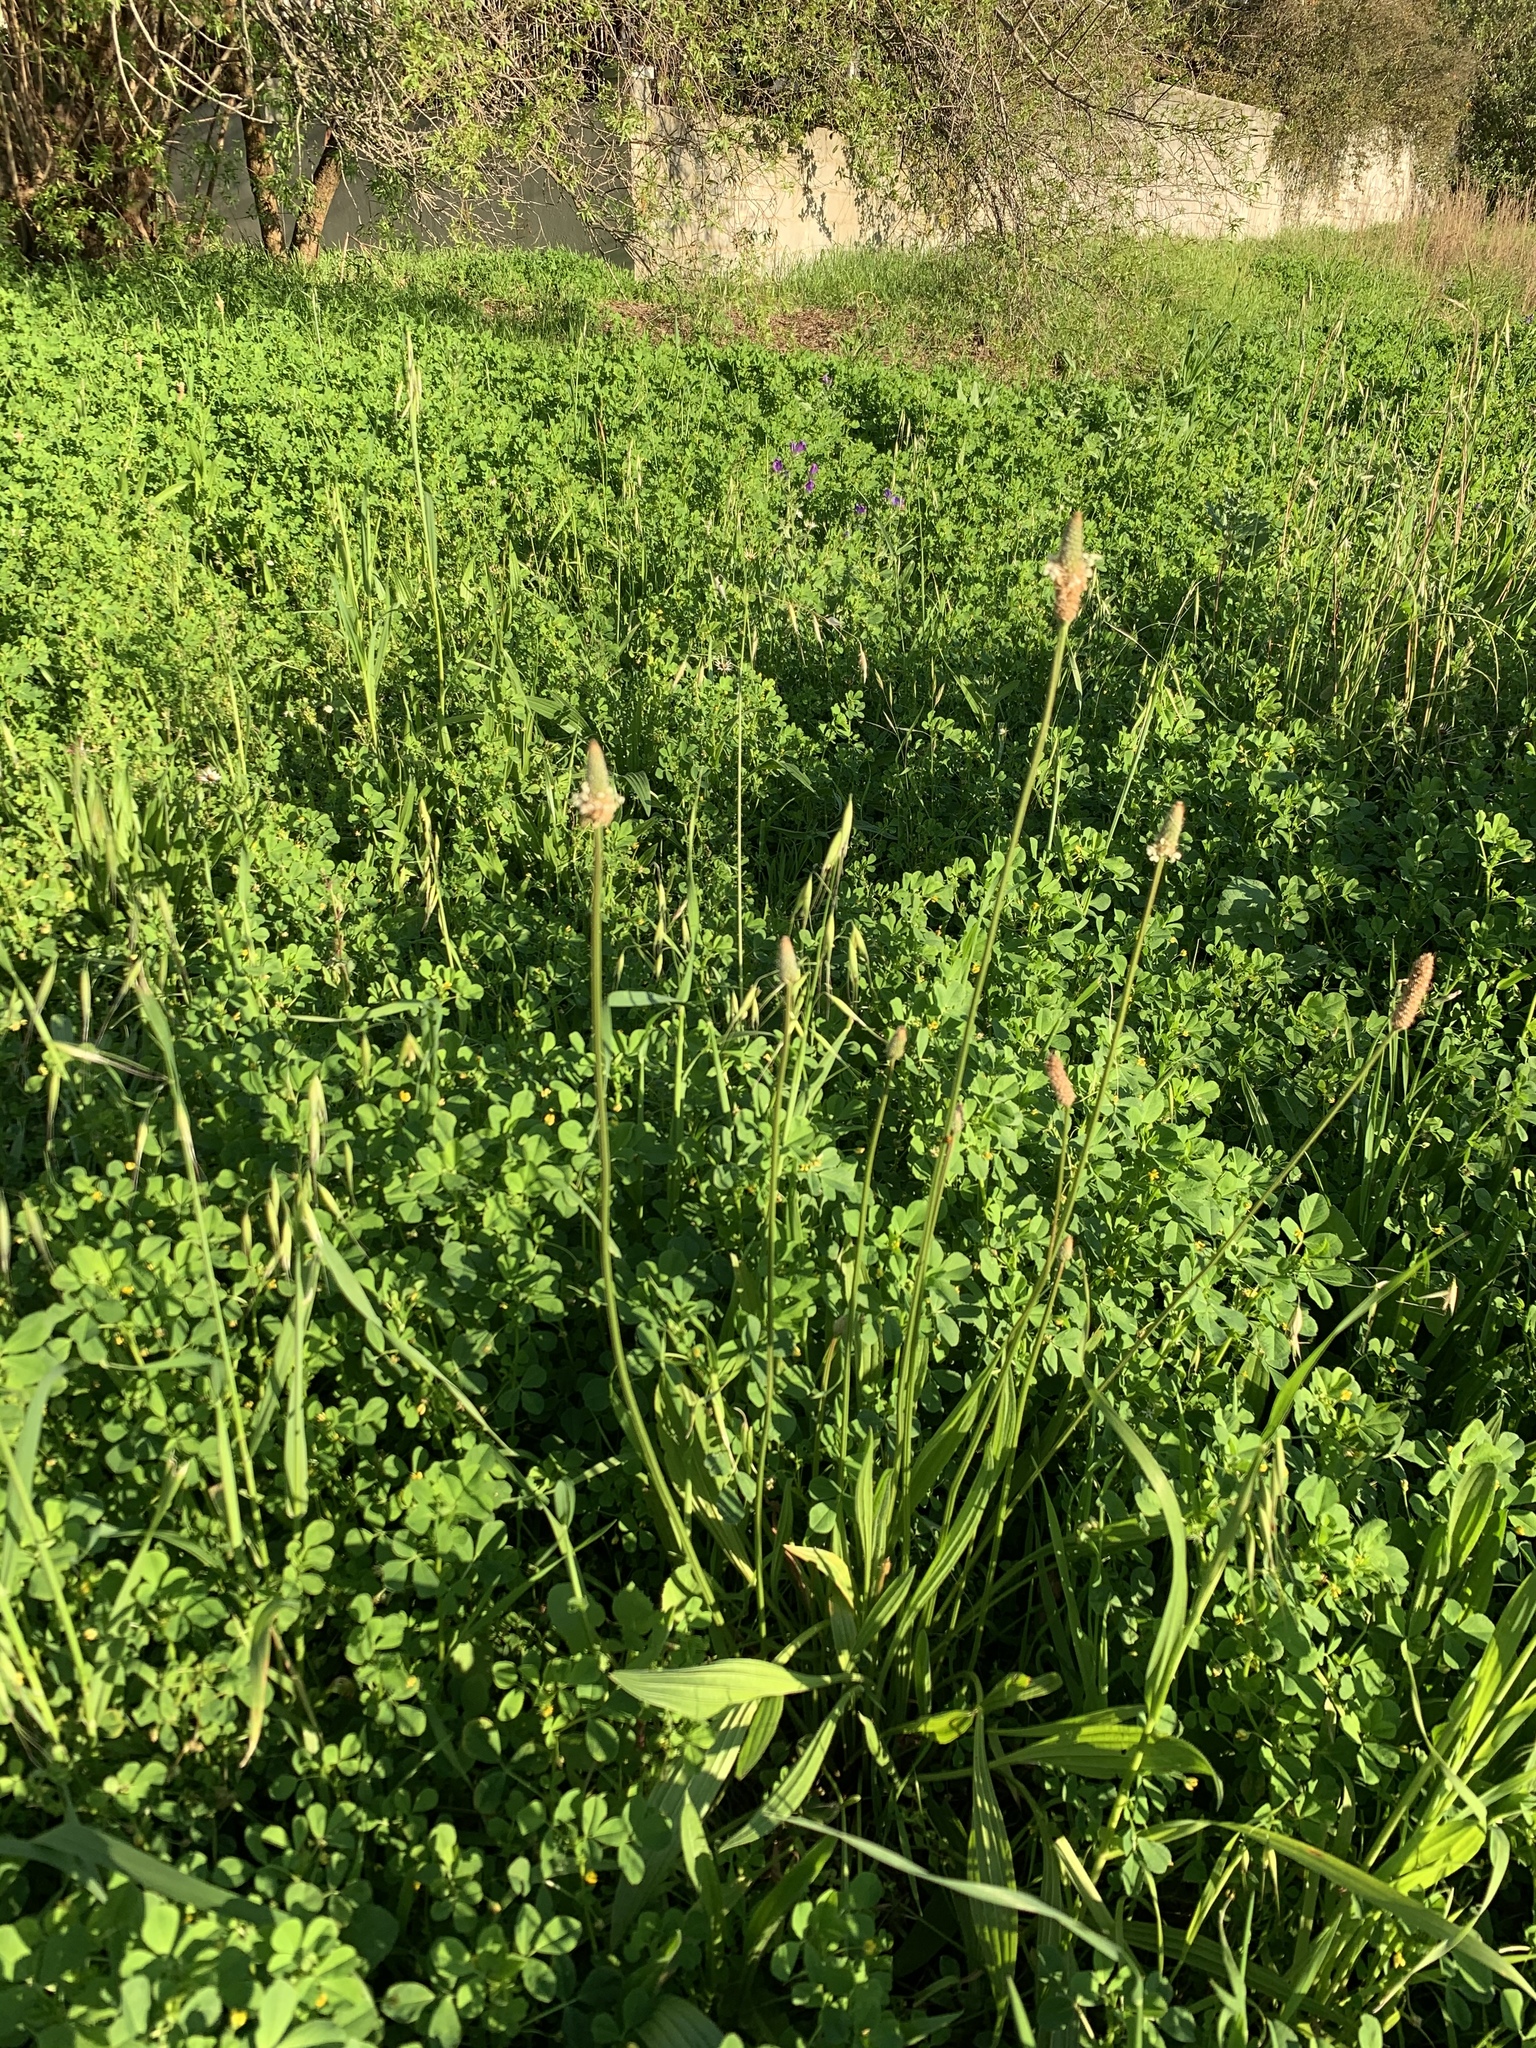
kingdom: Plantae
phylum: Tracheophyta
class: Magnoliopsida
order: Lamiales
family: Plantaginaceae
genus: Plantago
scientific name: Plantago lanceolata
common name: Ribwort plantain
